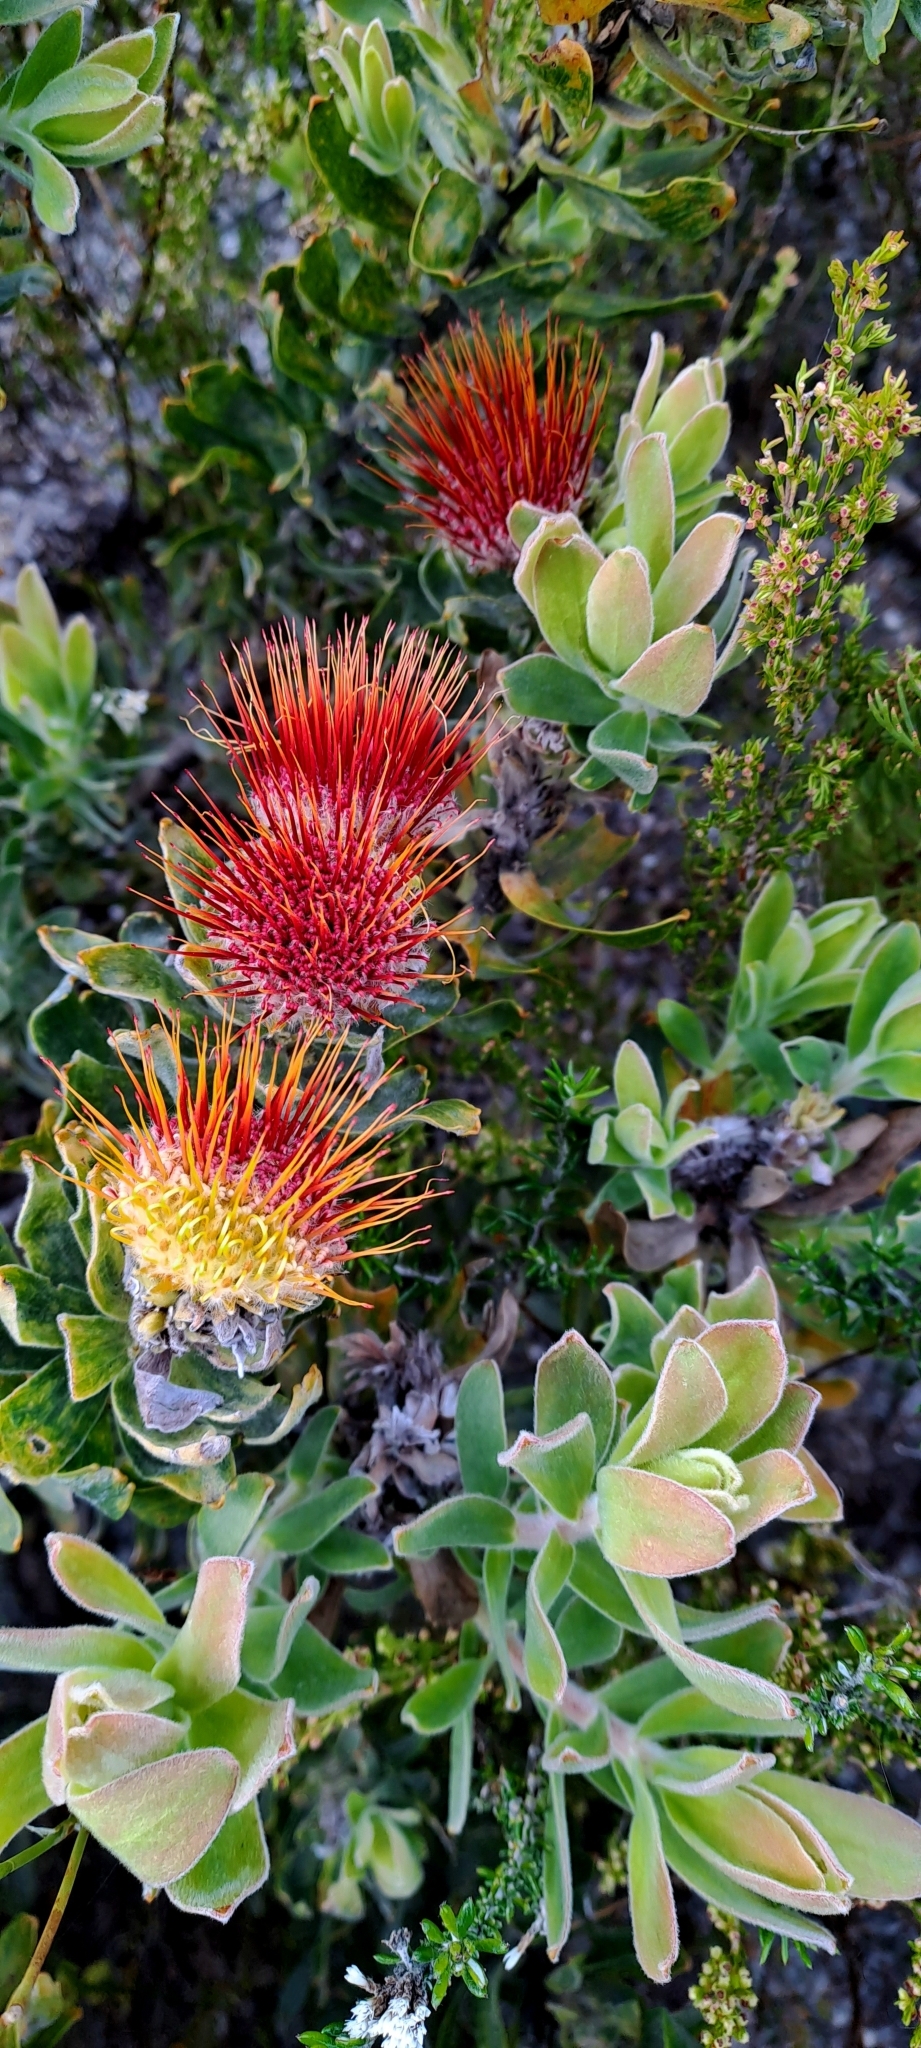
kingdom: Plantae
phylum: Tracheophyta
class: Magnoliopsida
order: Proteales
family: Proteaceae
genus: Leucospermum
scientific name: Leucospermum oleifolium
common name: Matches
